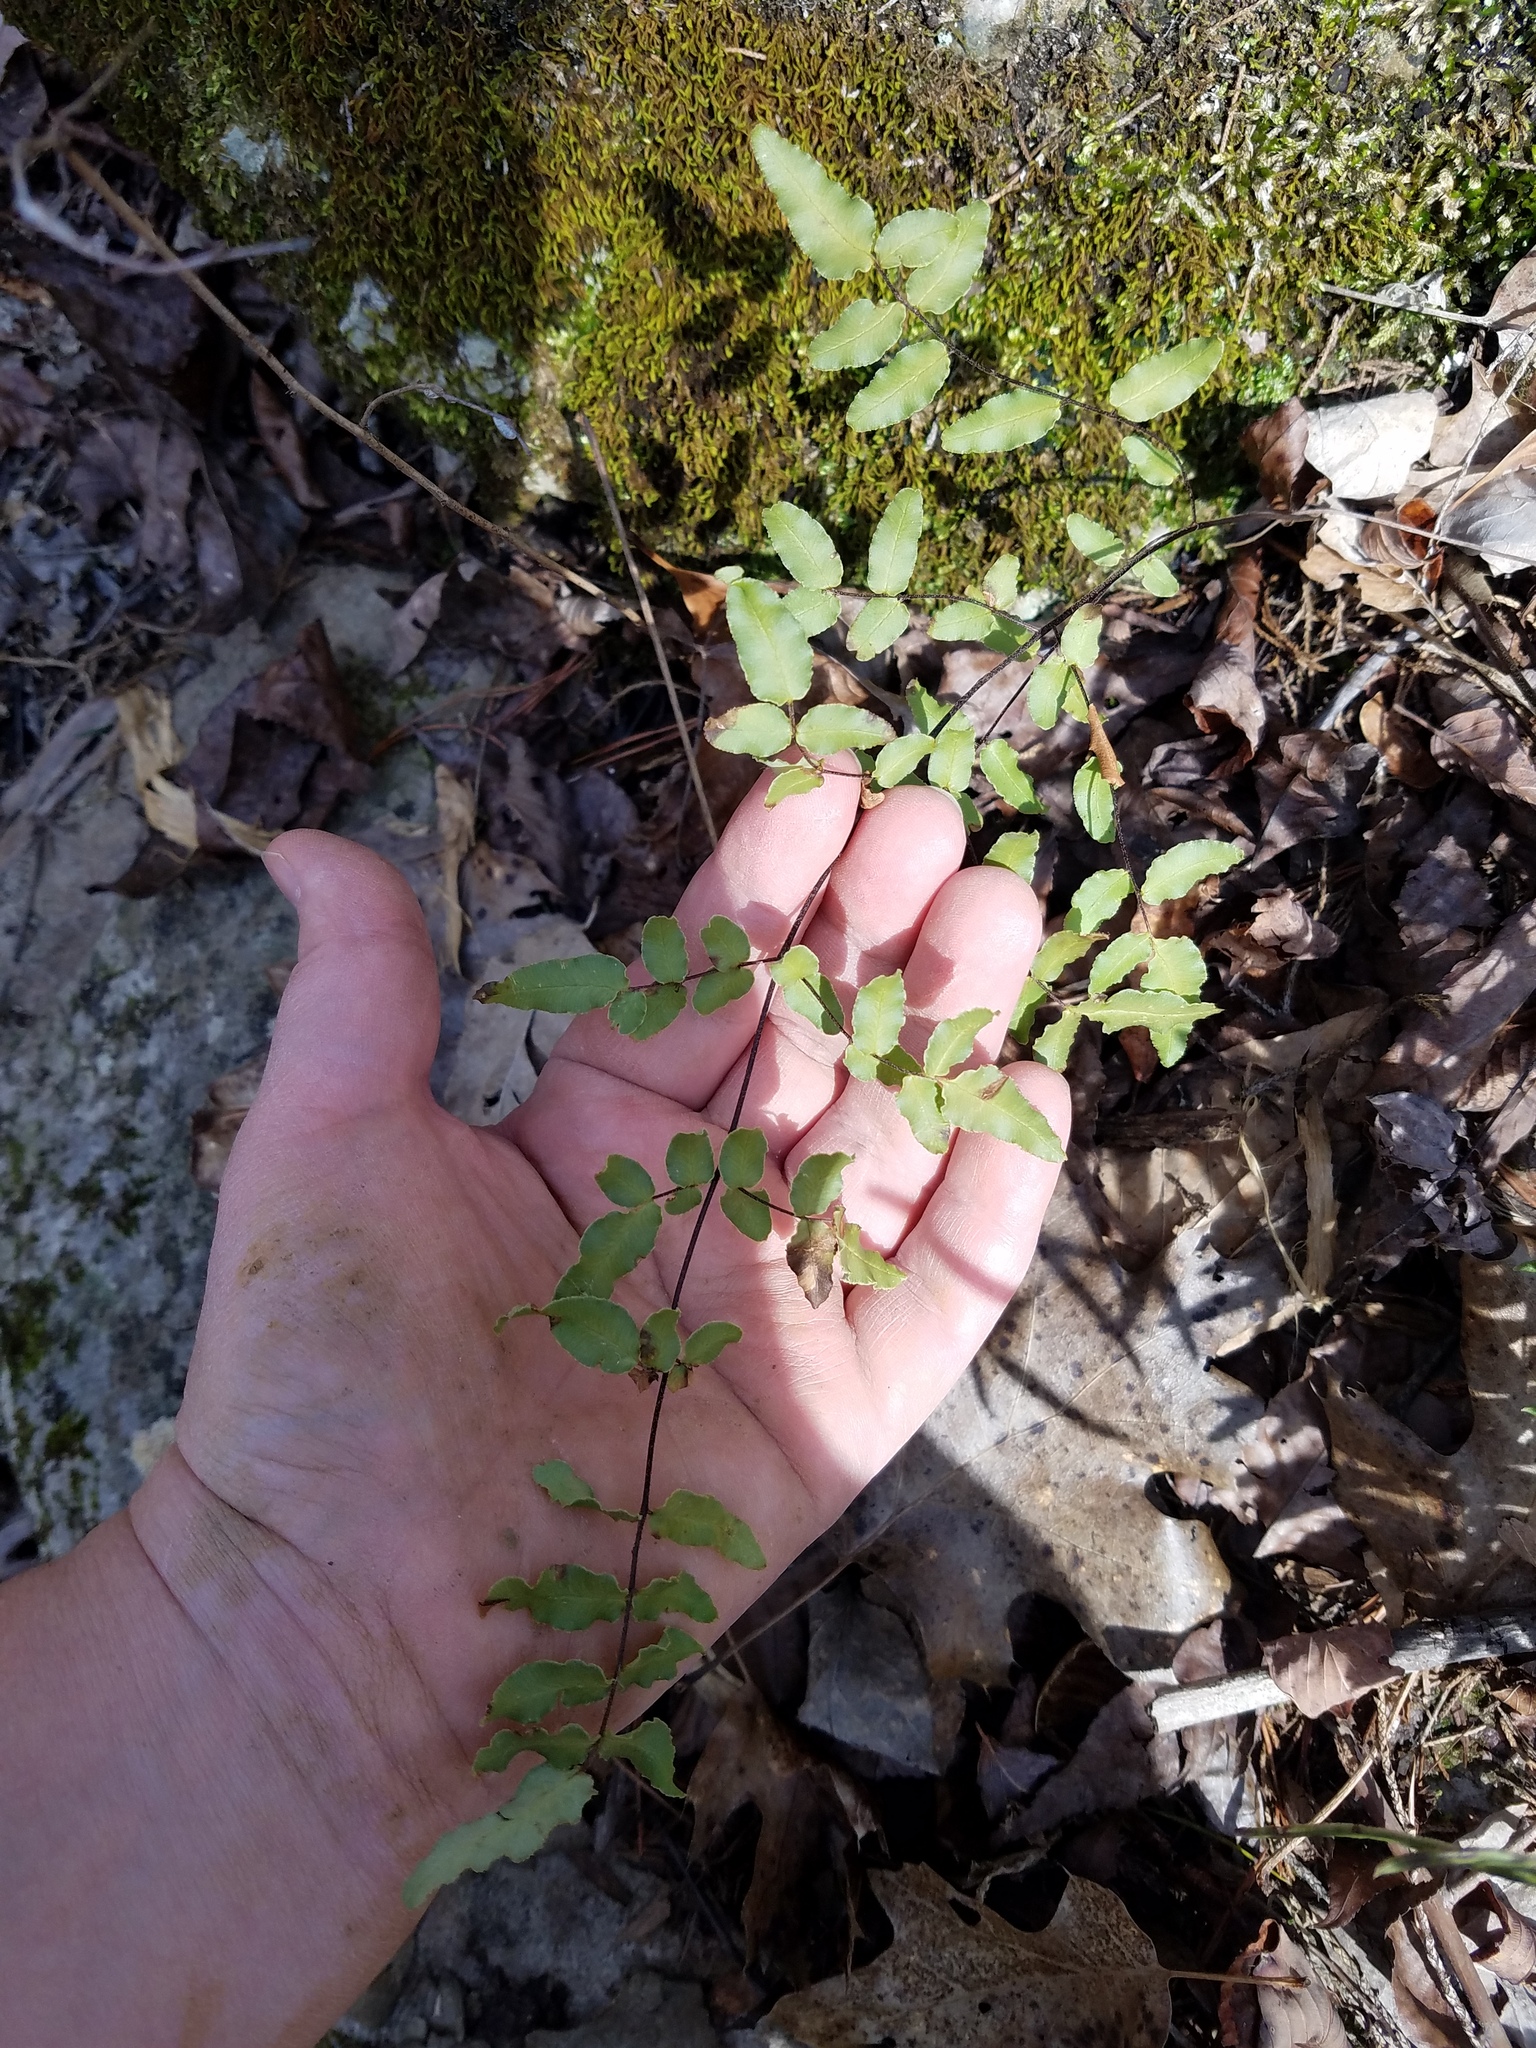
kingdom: Plantae
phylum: Tracheophyta
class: Polypodiopsida
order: Polypodiales
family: Pteridaceae
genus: Pellaea
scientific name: Pellaea atropurpurea
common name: Hairy cliffbrake
